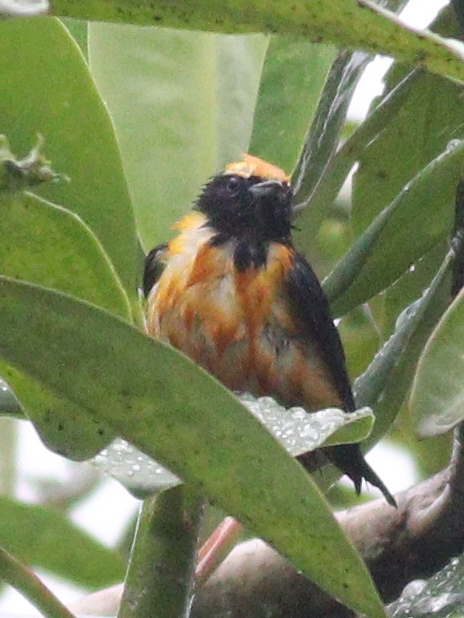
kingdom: Animalia
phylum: Chordata
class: Aves
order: Passeriformes
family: Fringillidae
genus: Euphonia
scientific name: Euphonia saturata
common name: Orange-crowned euphonia
